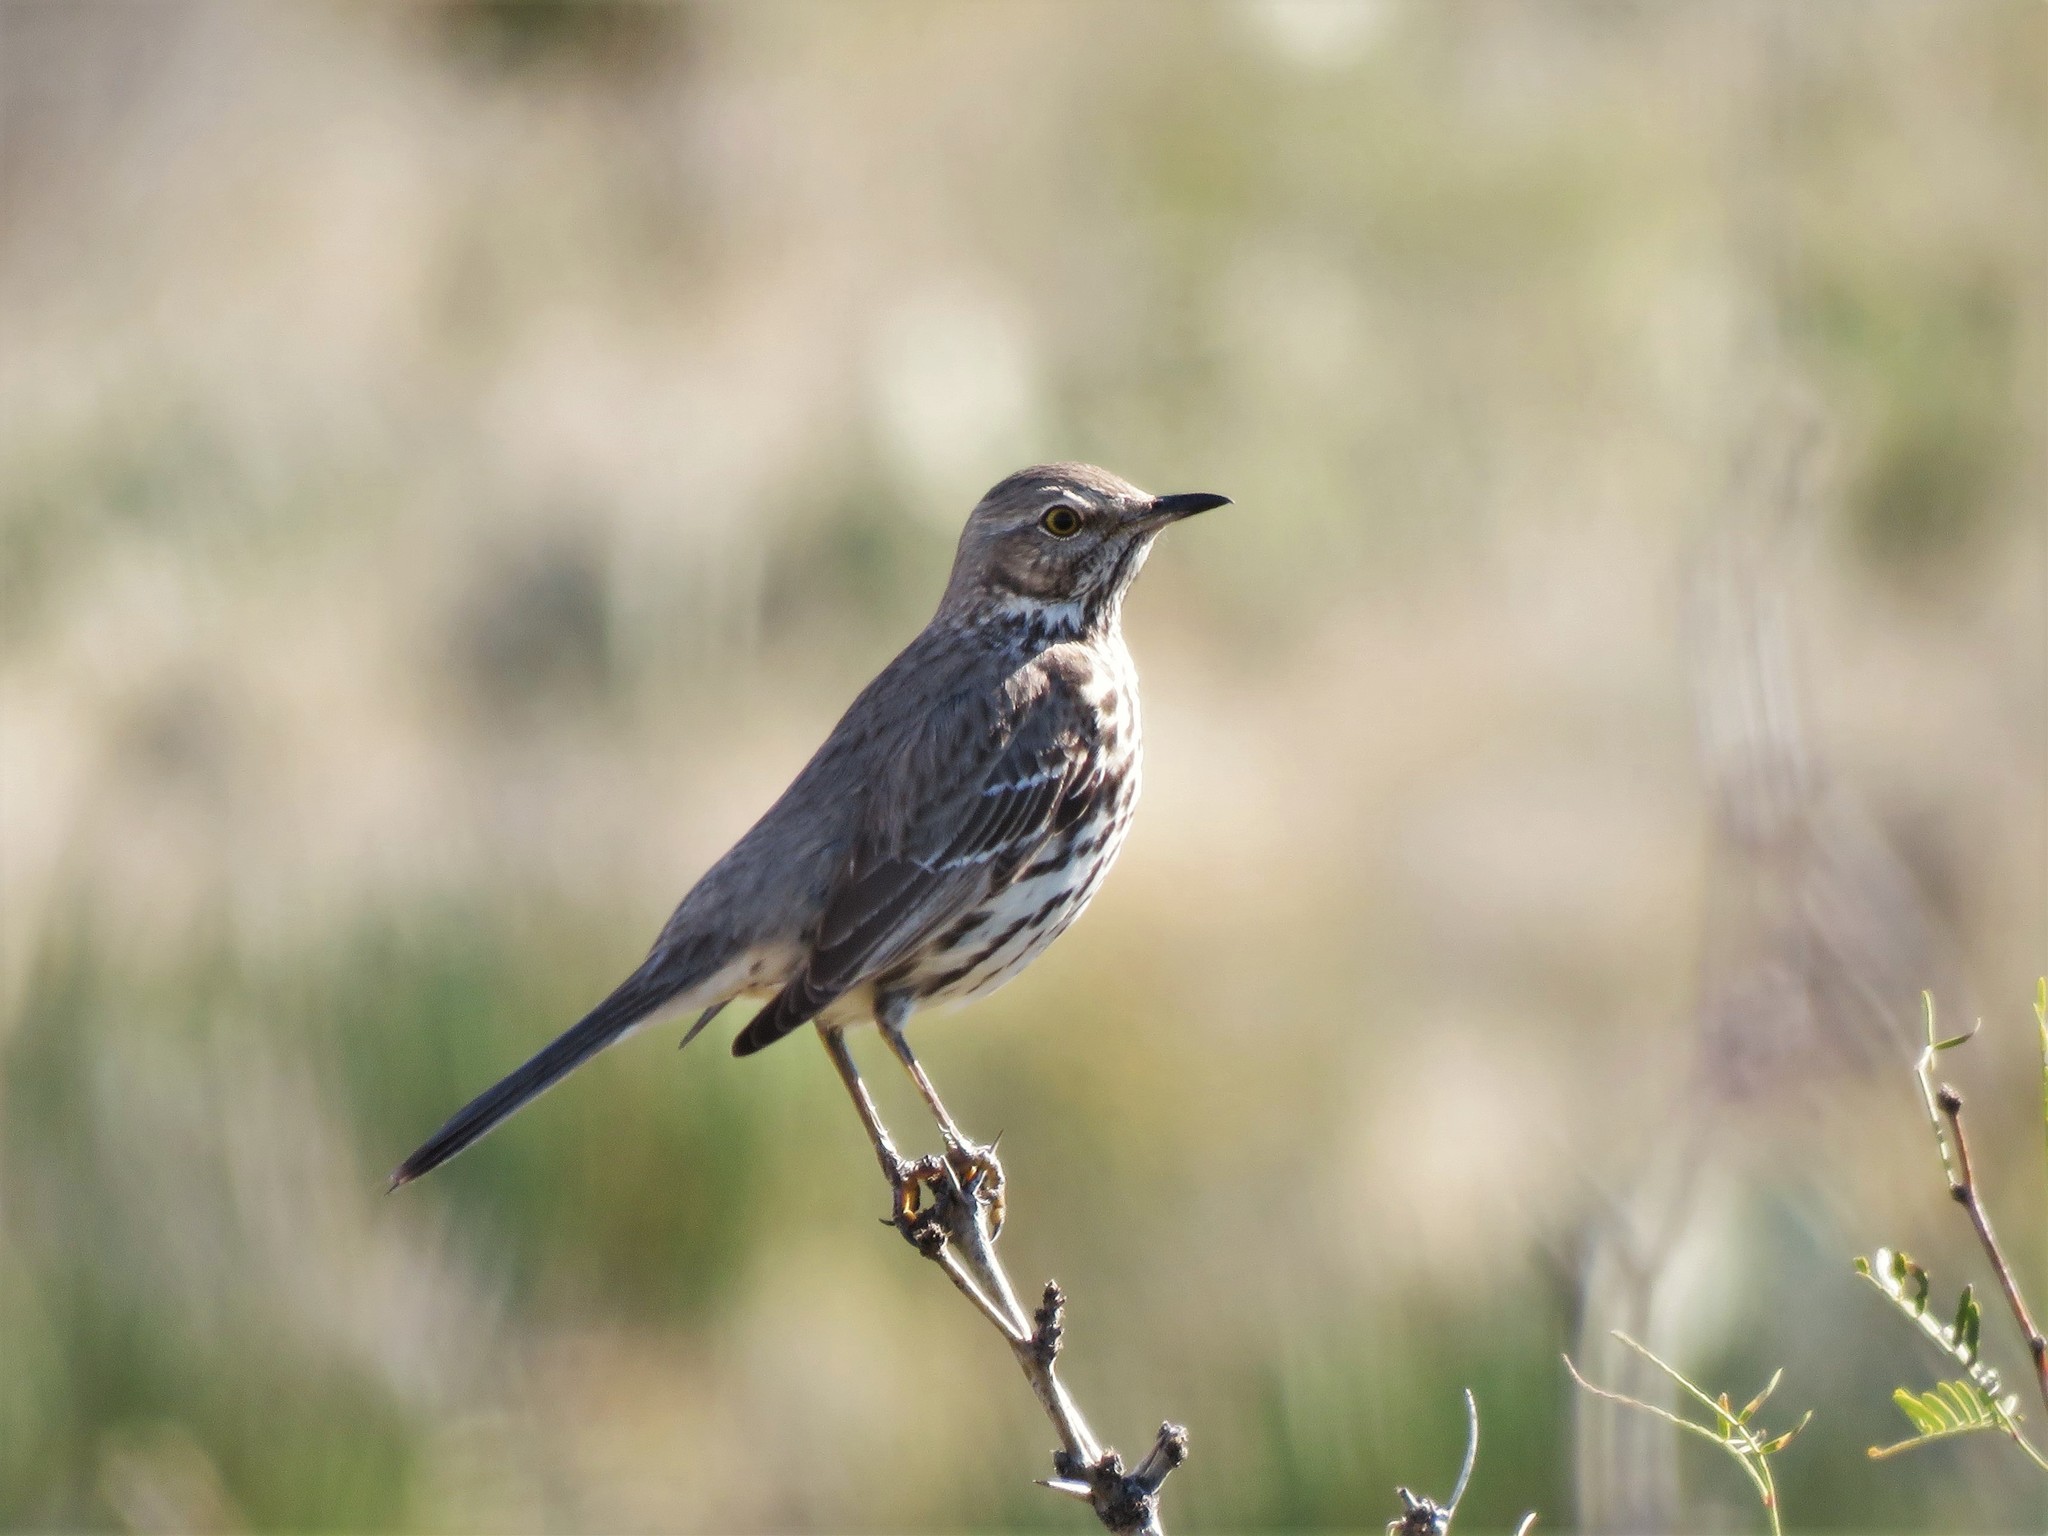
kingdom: Animalia
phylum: Chordata
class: Aves
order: Passeriformes
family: Mimidae
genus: Oreoscoptes
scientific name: Oreoscoptes montanus
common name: Sage thrasher
